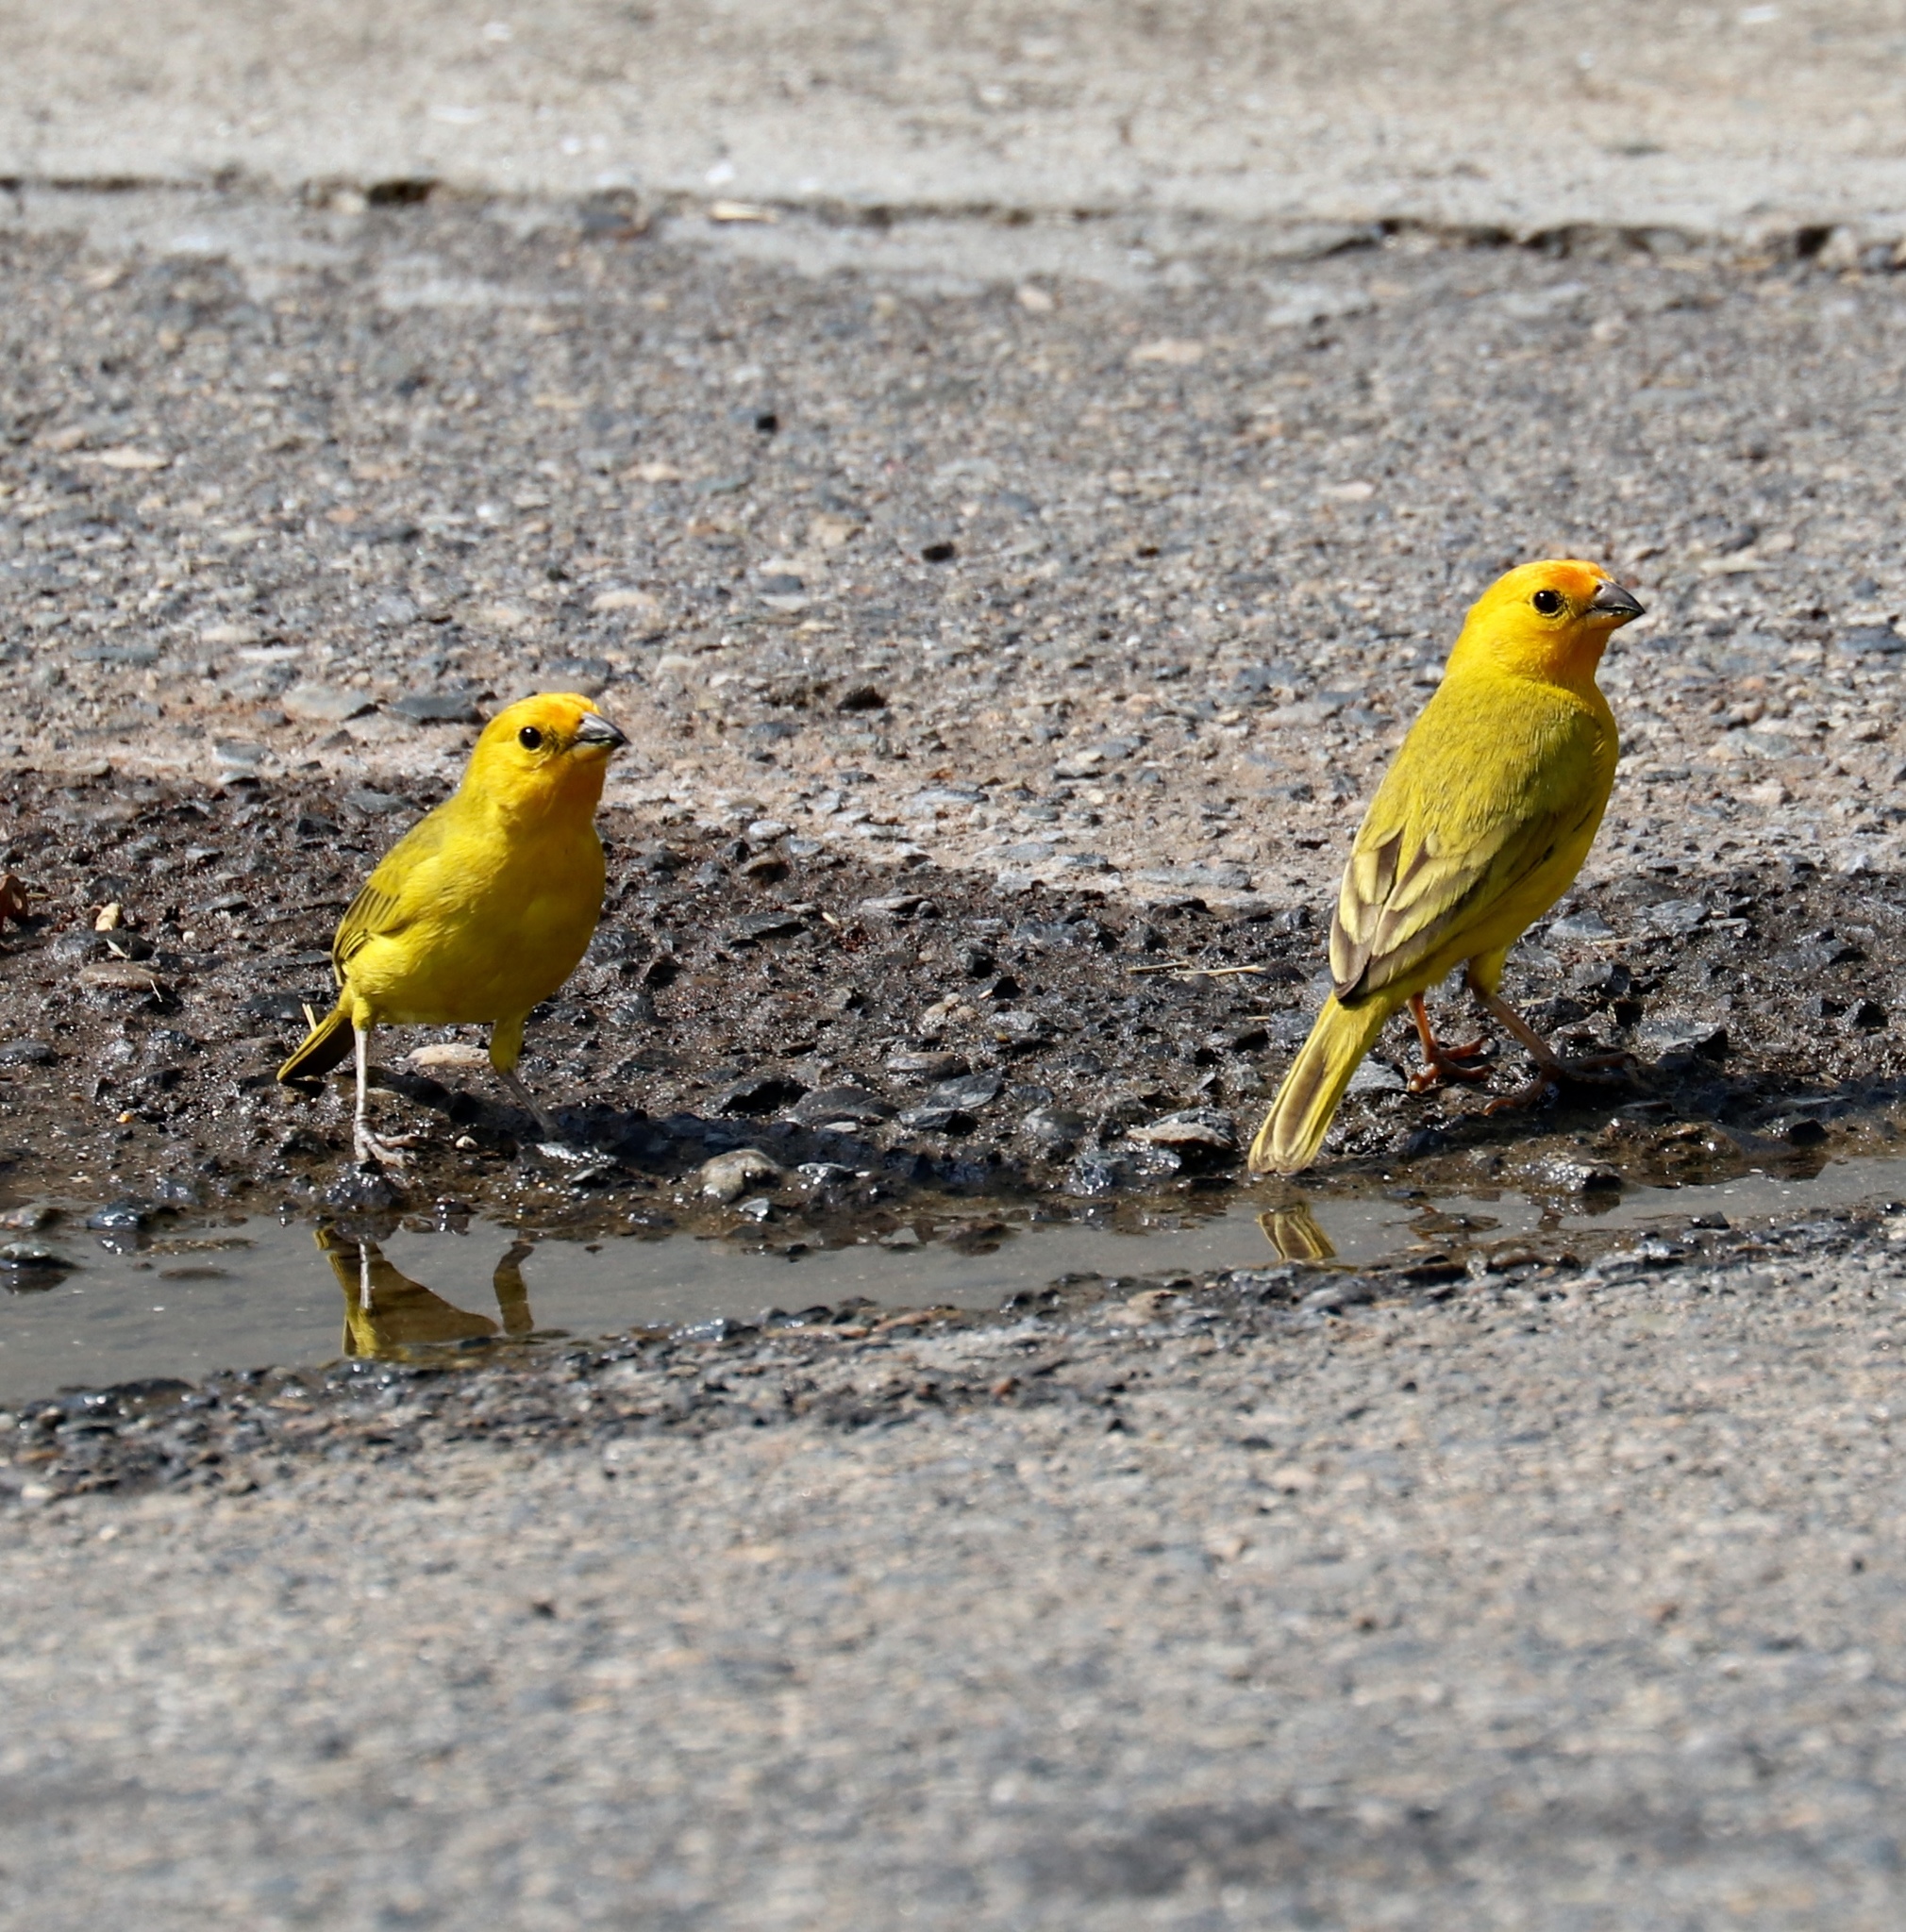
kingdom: Animalia
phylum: Chordata
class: Aves
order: Passeriformes
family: Thraupidae
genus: Sicalis
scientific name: Sicalis flaveola
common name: Saffron finch
